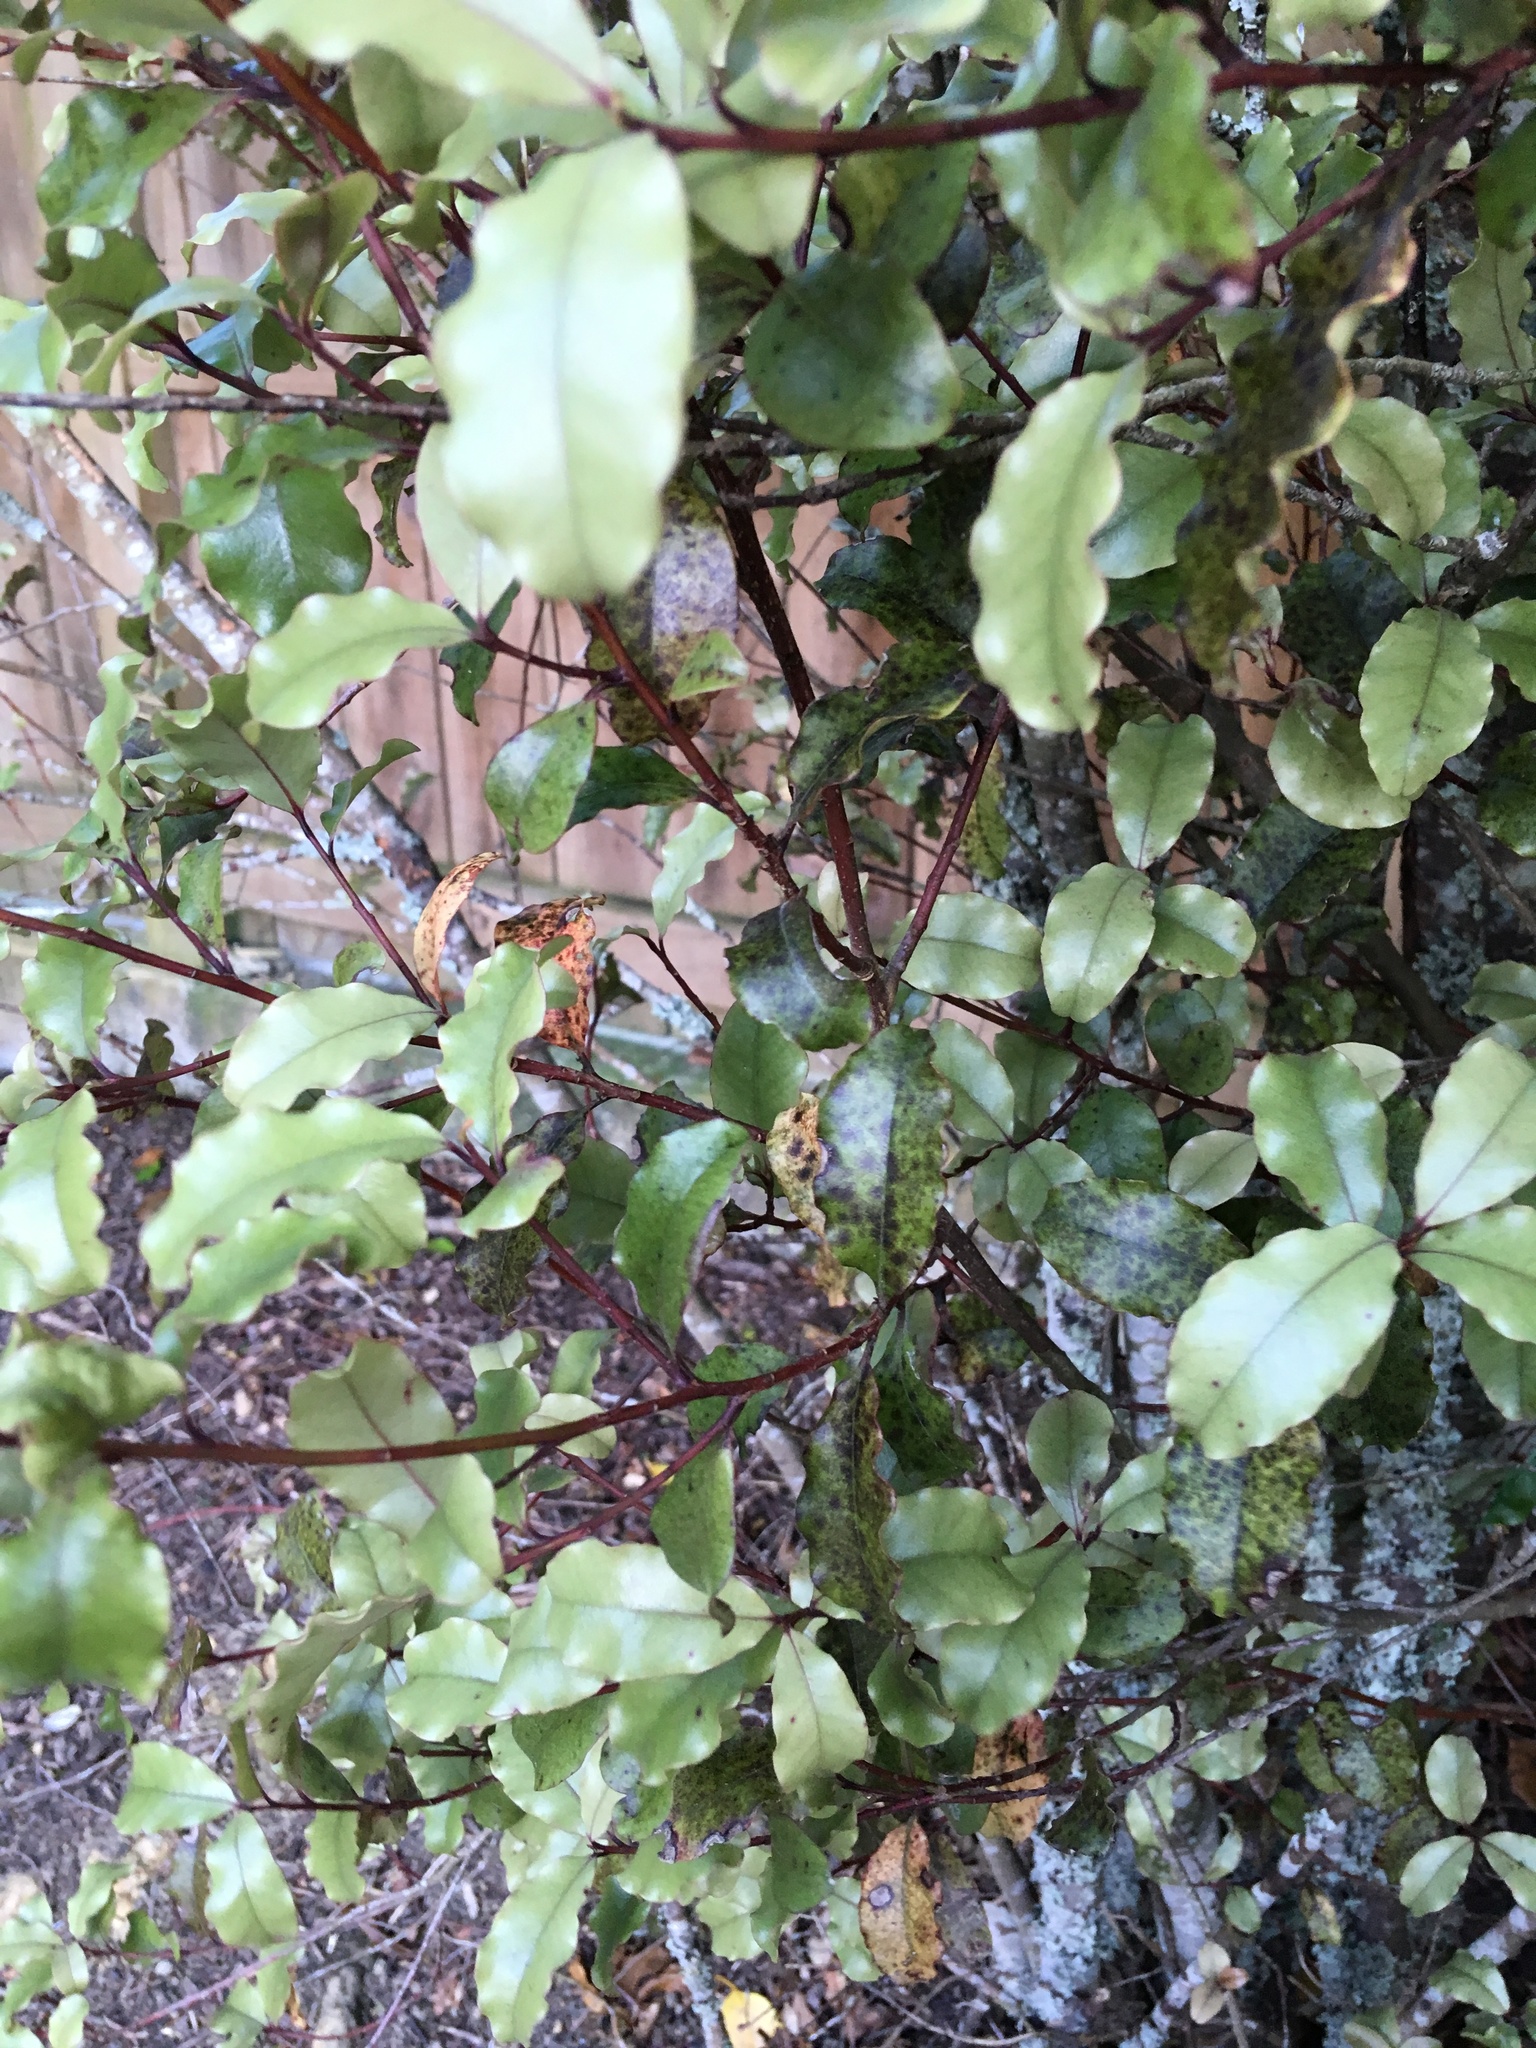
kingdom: Plantae
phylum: Tracheophyta
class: Magnoliopsida
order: Ericales
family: Primulaceae
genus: Myrsine
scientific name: Myrsine australis
